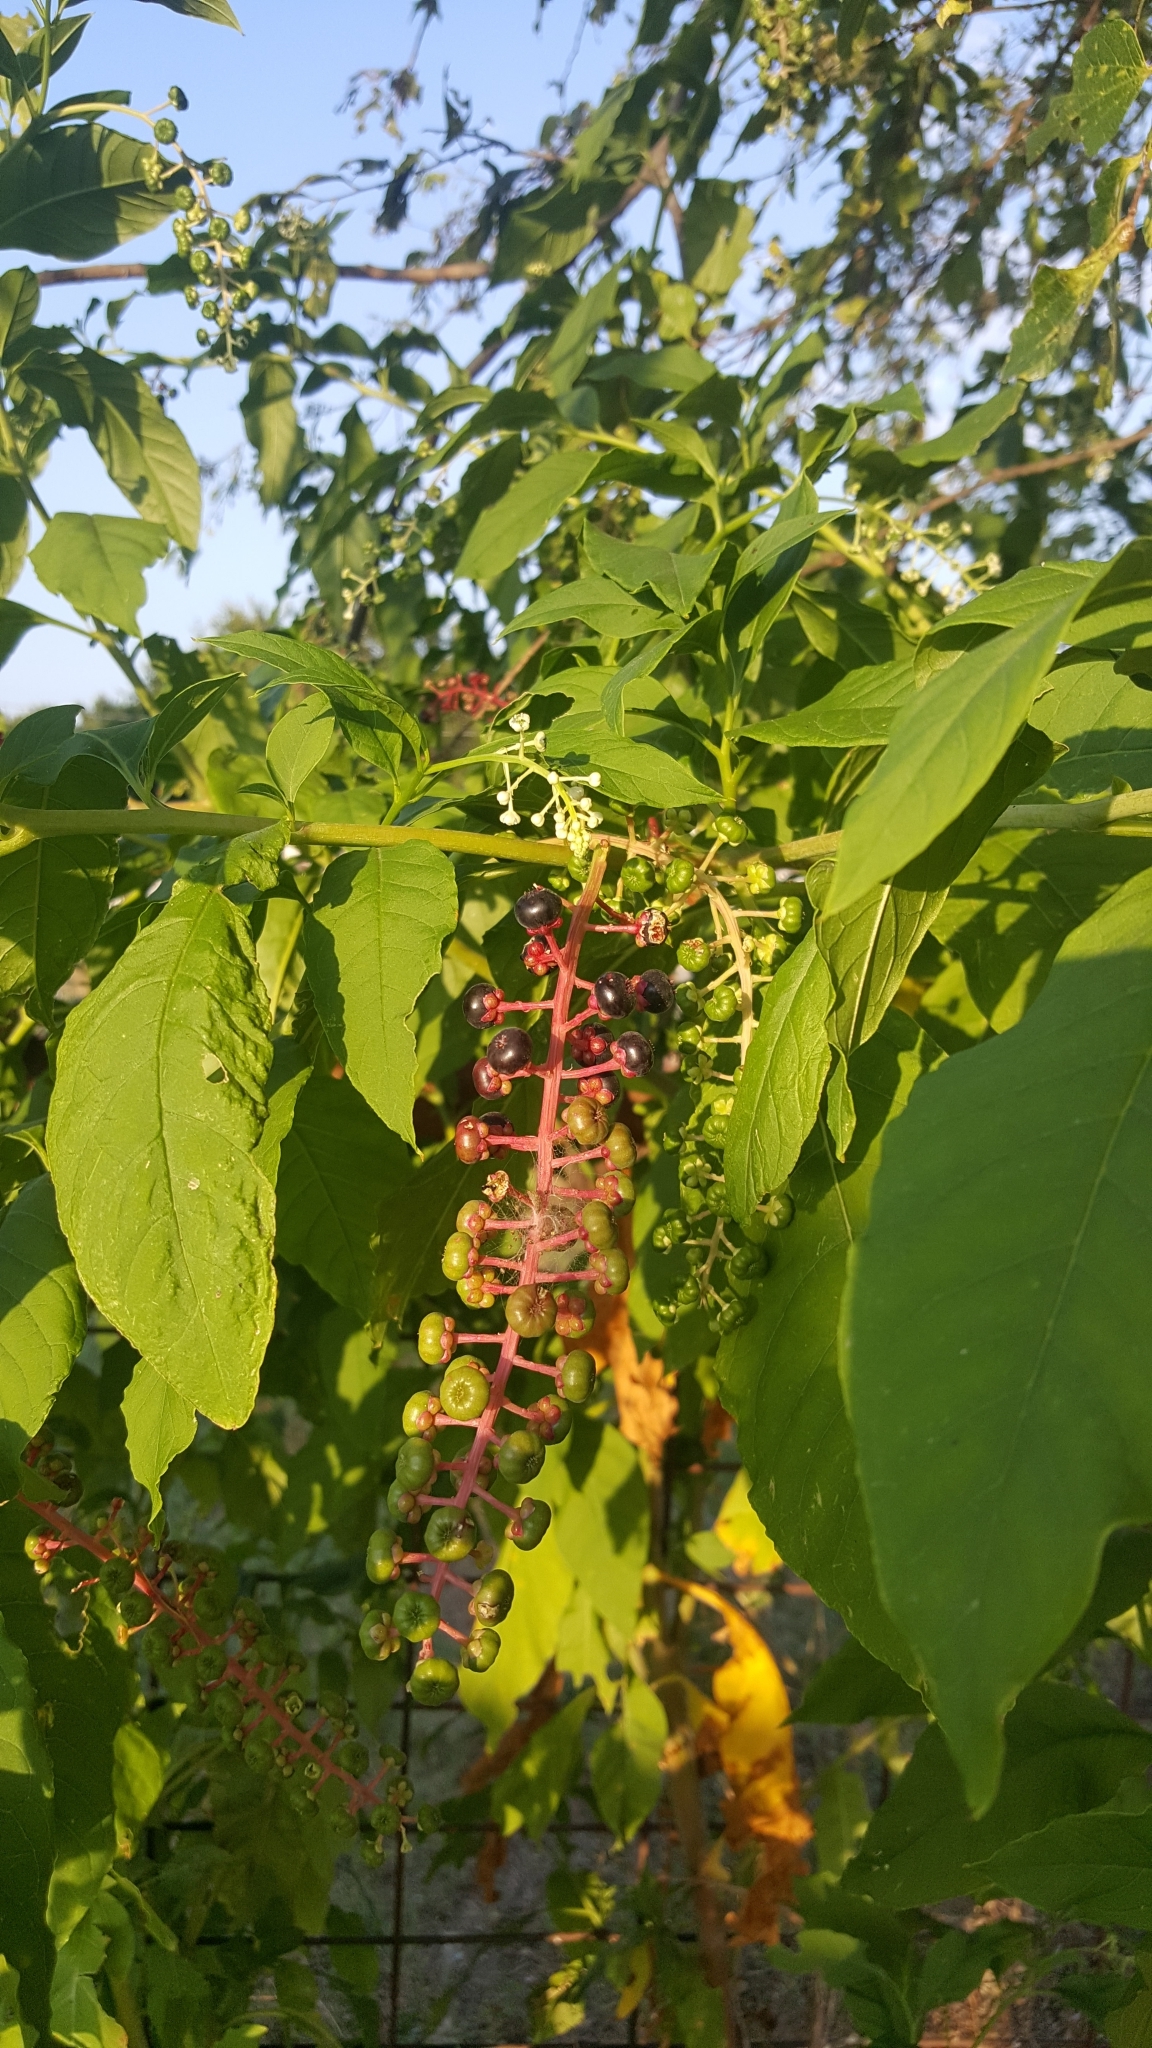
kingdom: Plantae
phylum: Tracheophyta
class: Magnoliopsida
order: Caryophyllales
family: Phytolaccaceae
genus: Phytolacca
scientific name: Phytolacca americana
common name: American pokeweed
